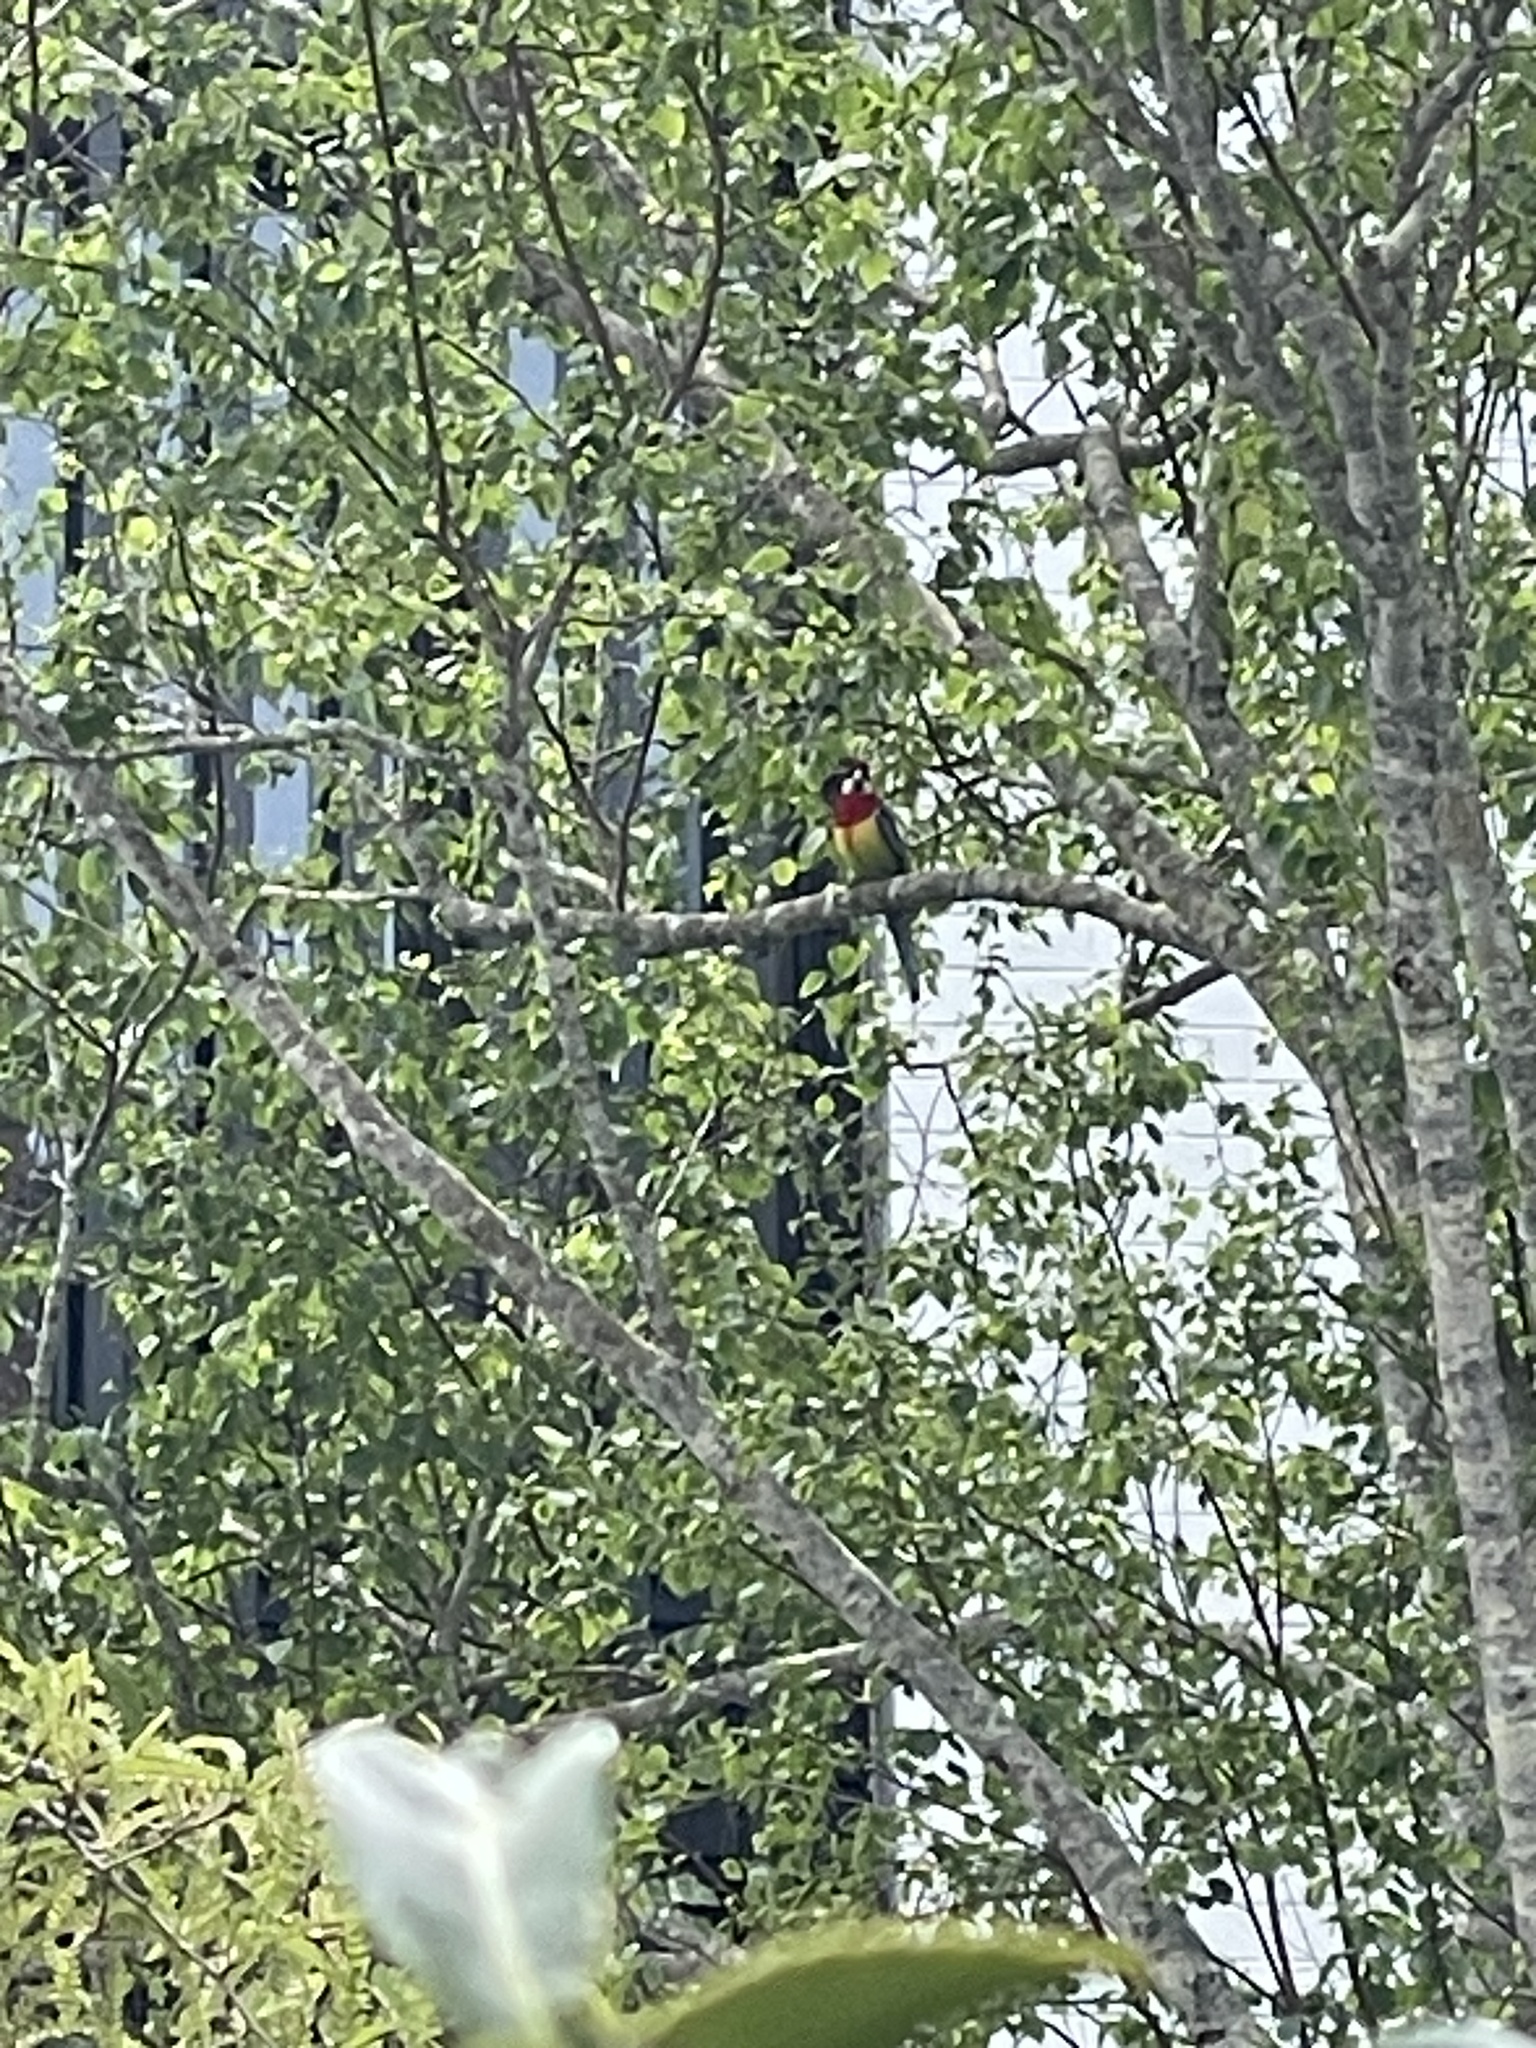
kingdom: Animalia
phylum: Chordata
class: Aves
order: Psittaciformes
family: Psittacidae
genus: Platycercus
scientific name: Platycercus eximius
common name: Eastern rosella
